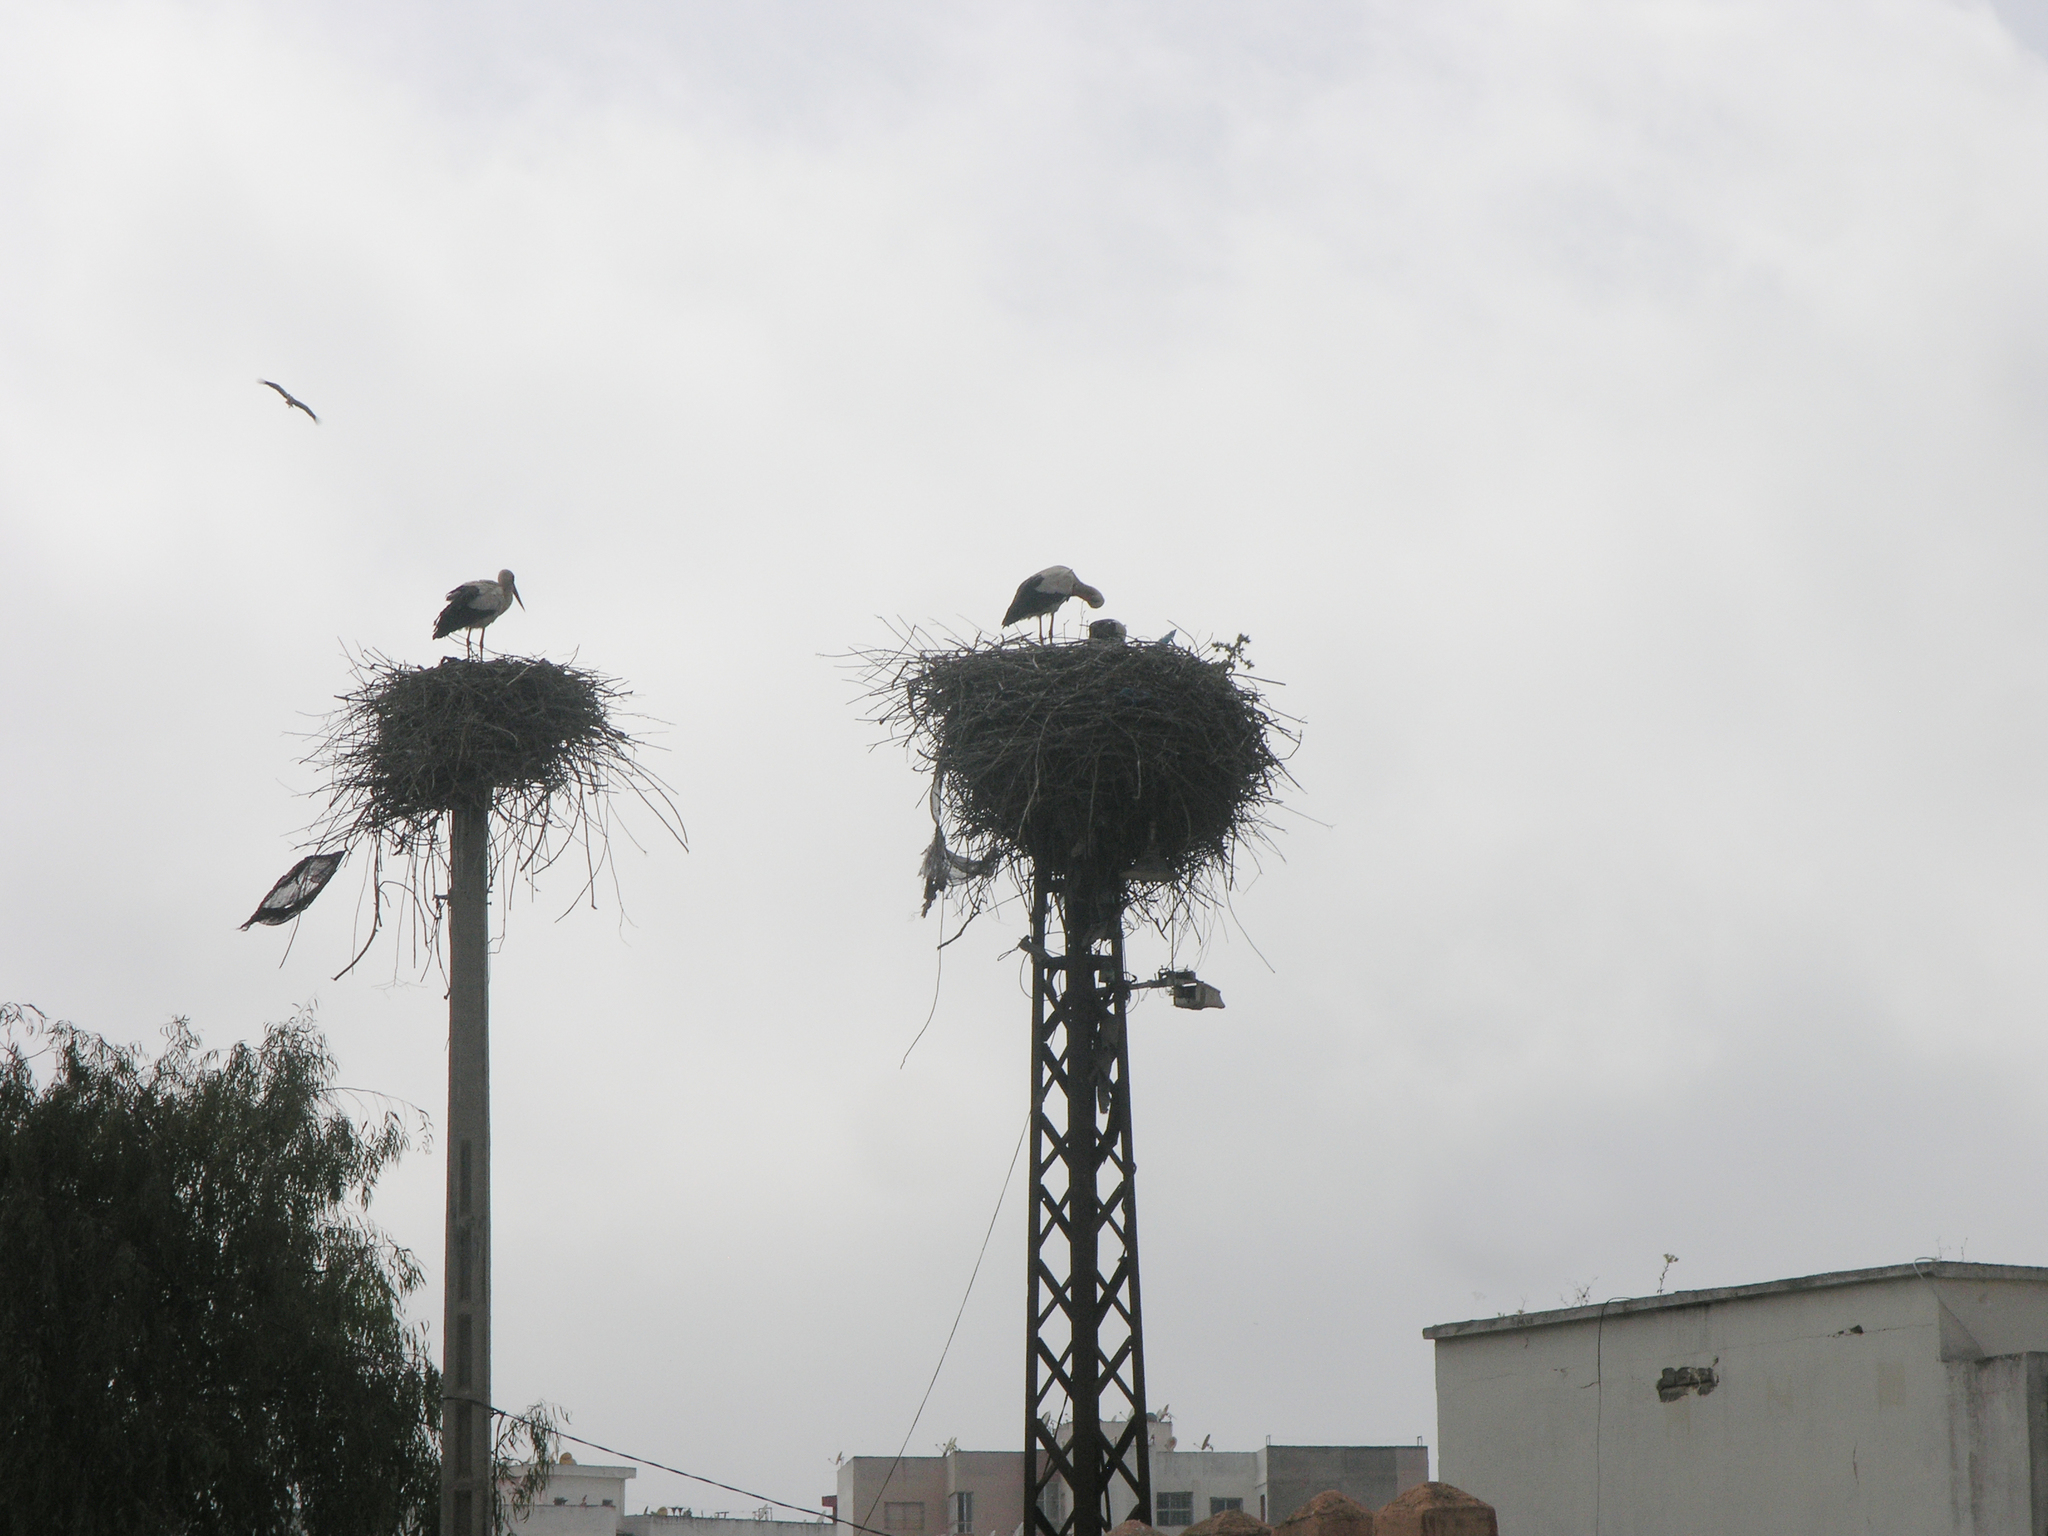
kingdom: Animalia
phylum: Chordata
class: Aves
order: Ciconiiformes
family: Ciconiidae
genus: Ciconia
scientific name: Ciconia ciconia
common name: White stork
